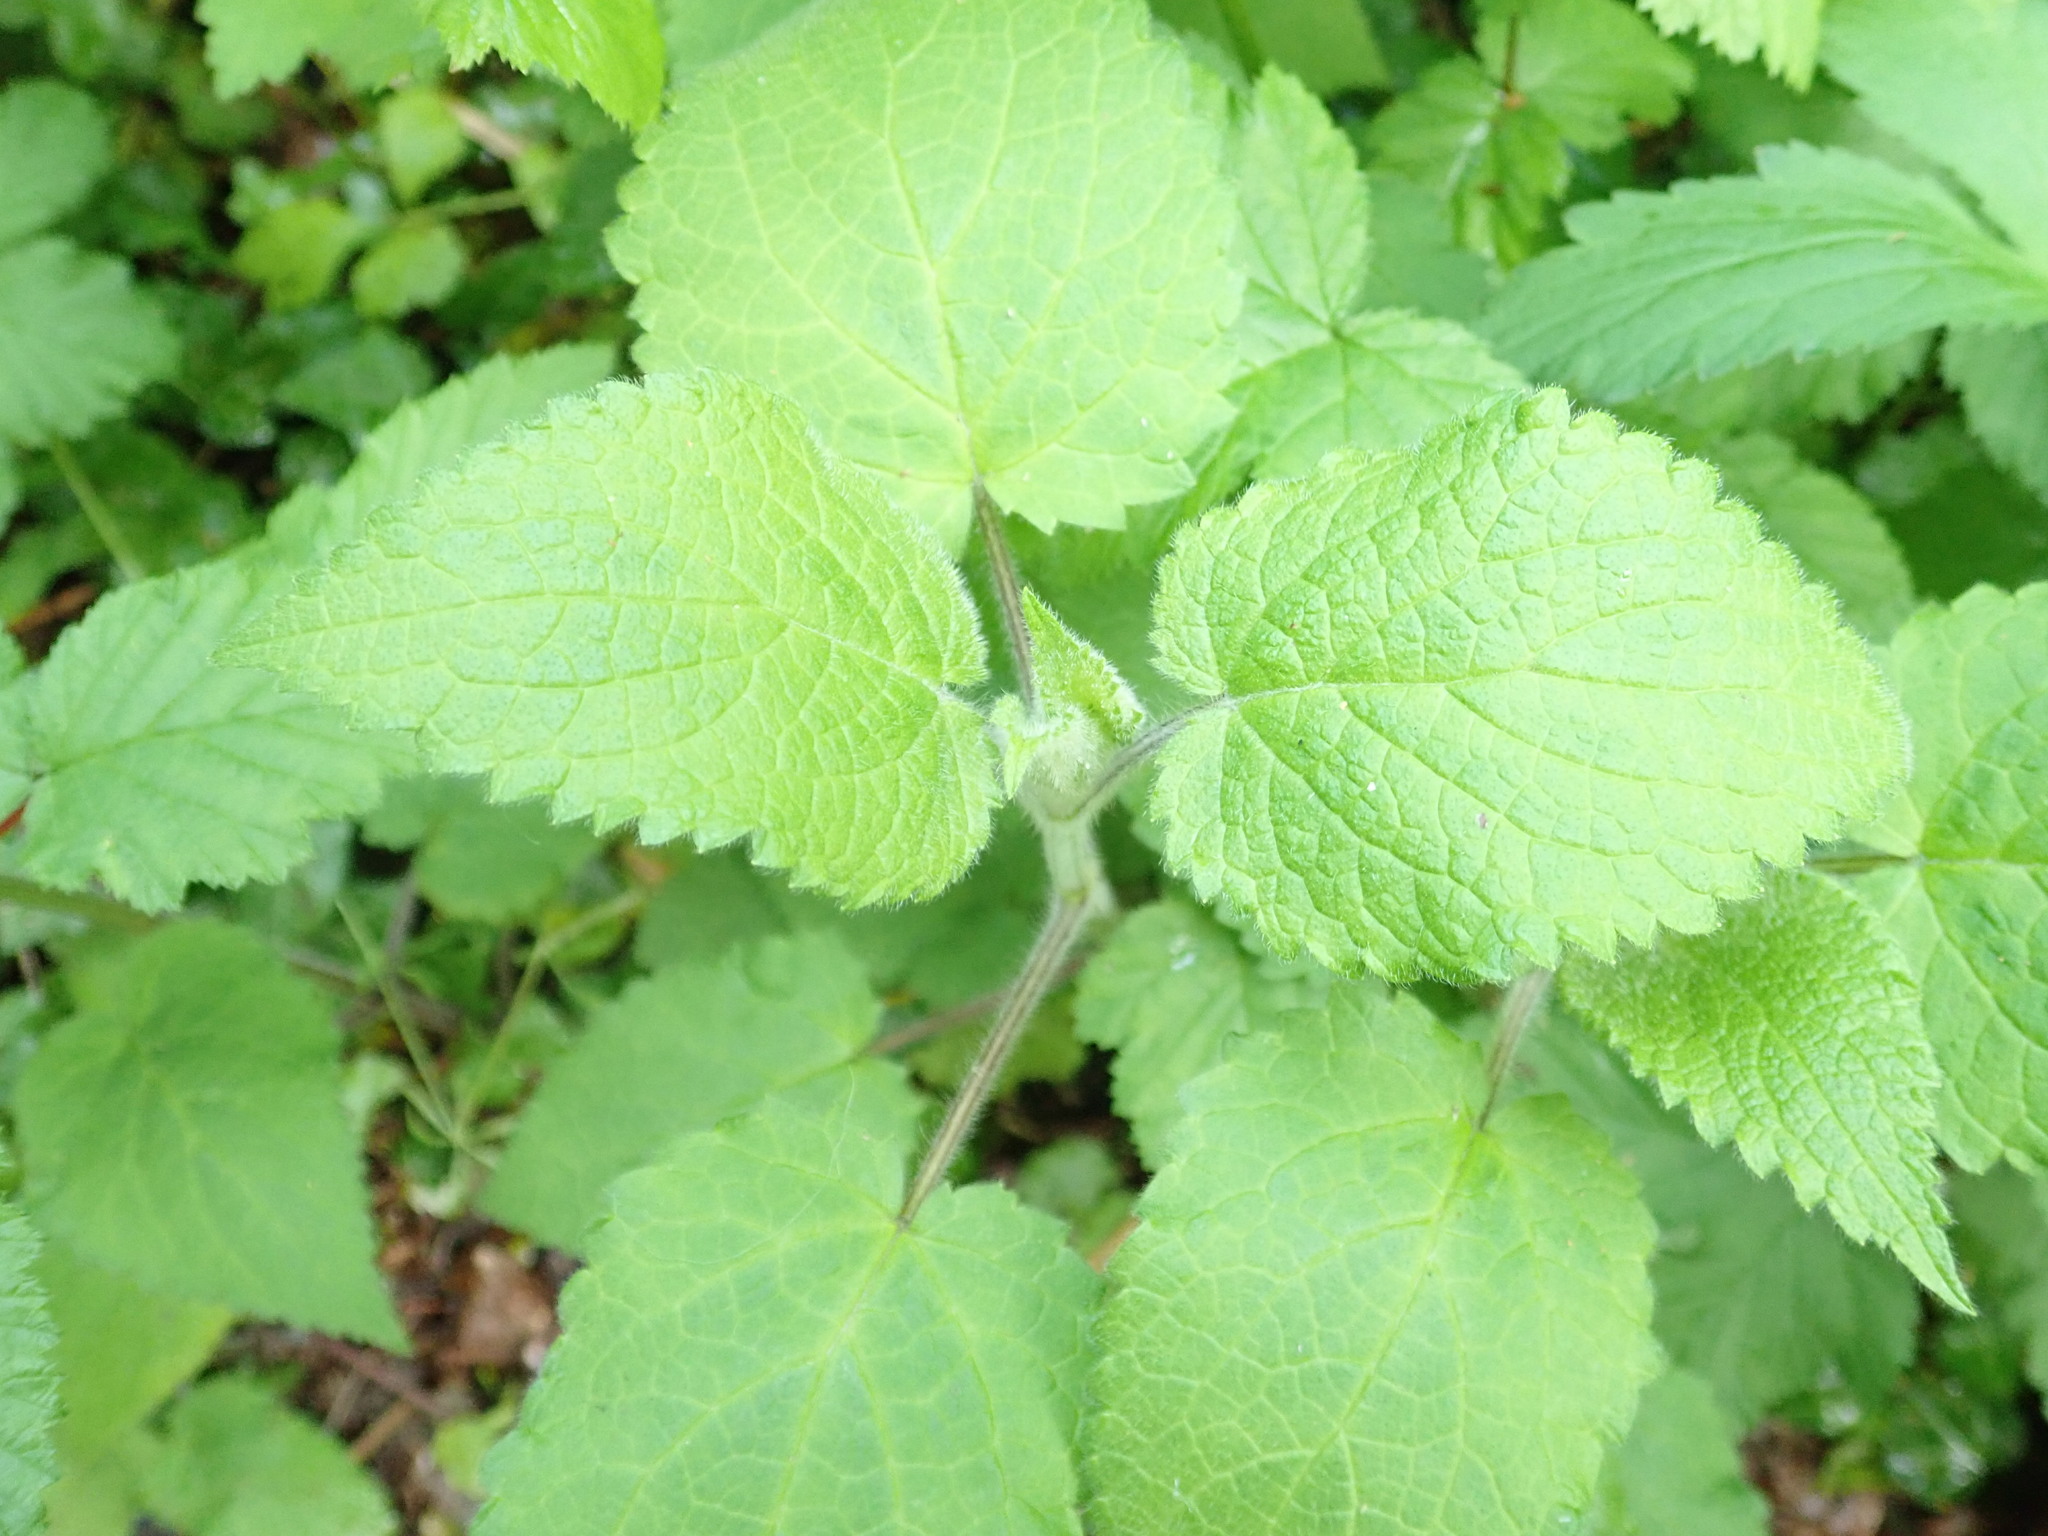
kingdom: Plantae
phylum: Tracheophyta
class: Magnoliopsida
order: Lamiales
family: Lamiaceae
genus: Stachys
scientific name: Stachys sylvatica
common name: Hedge woundwort
